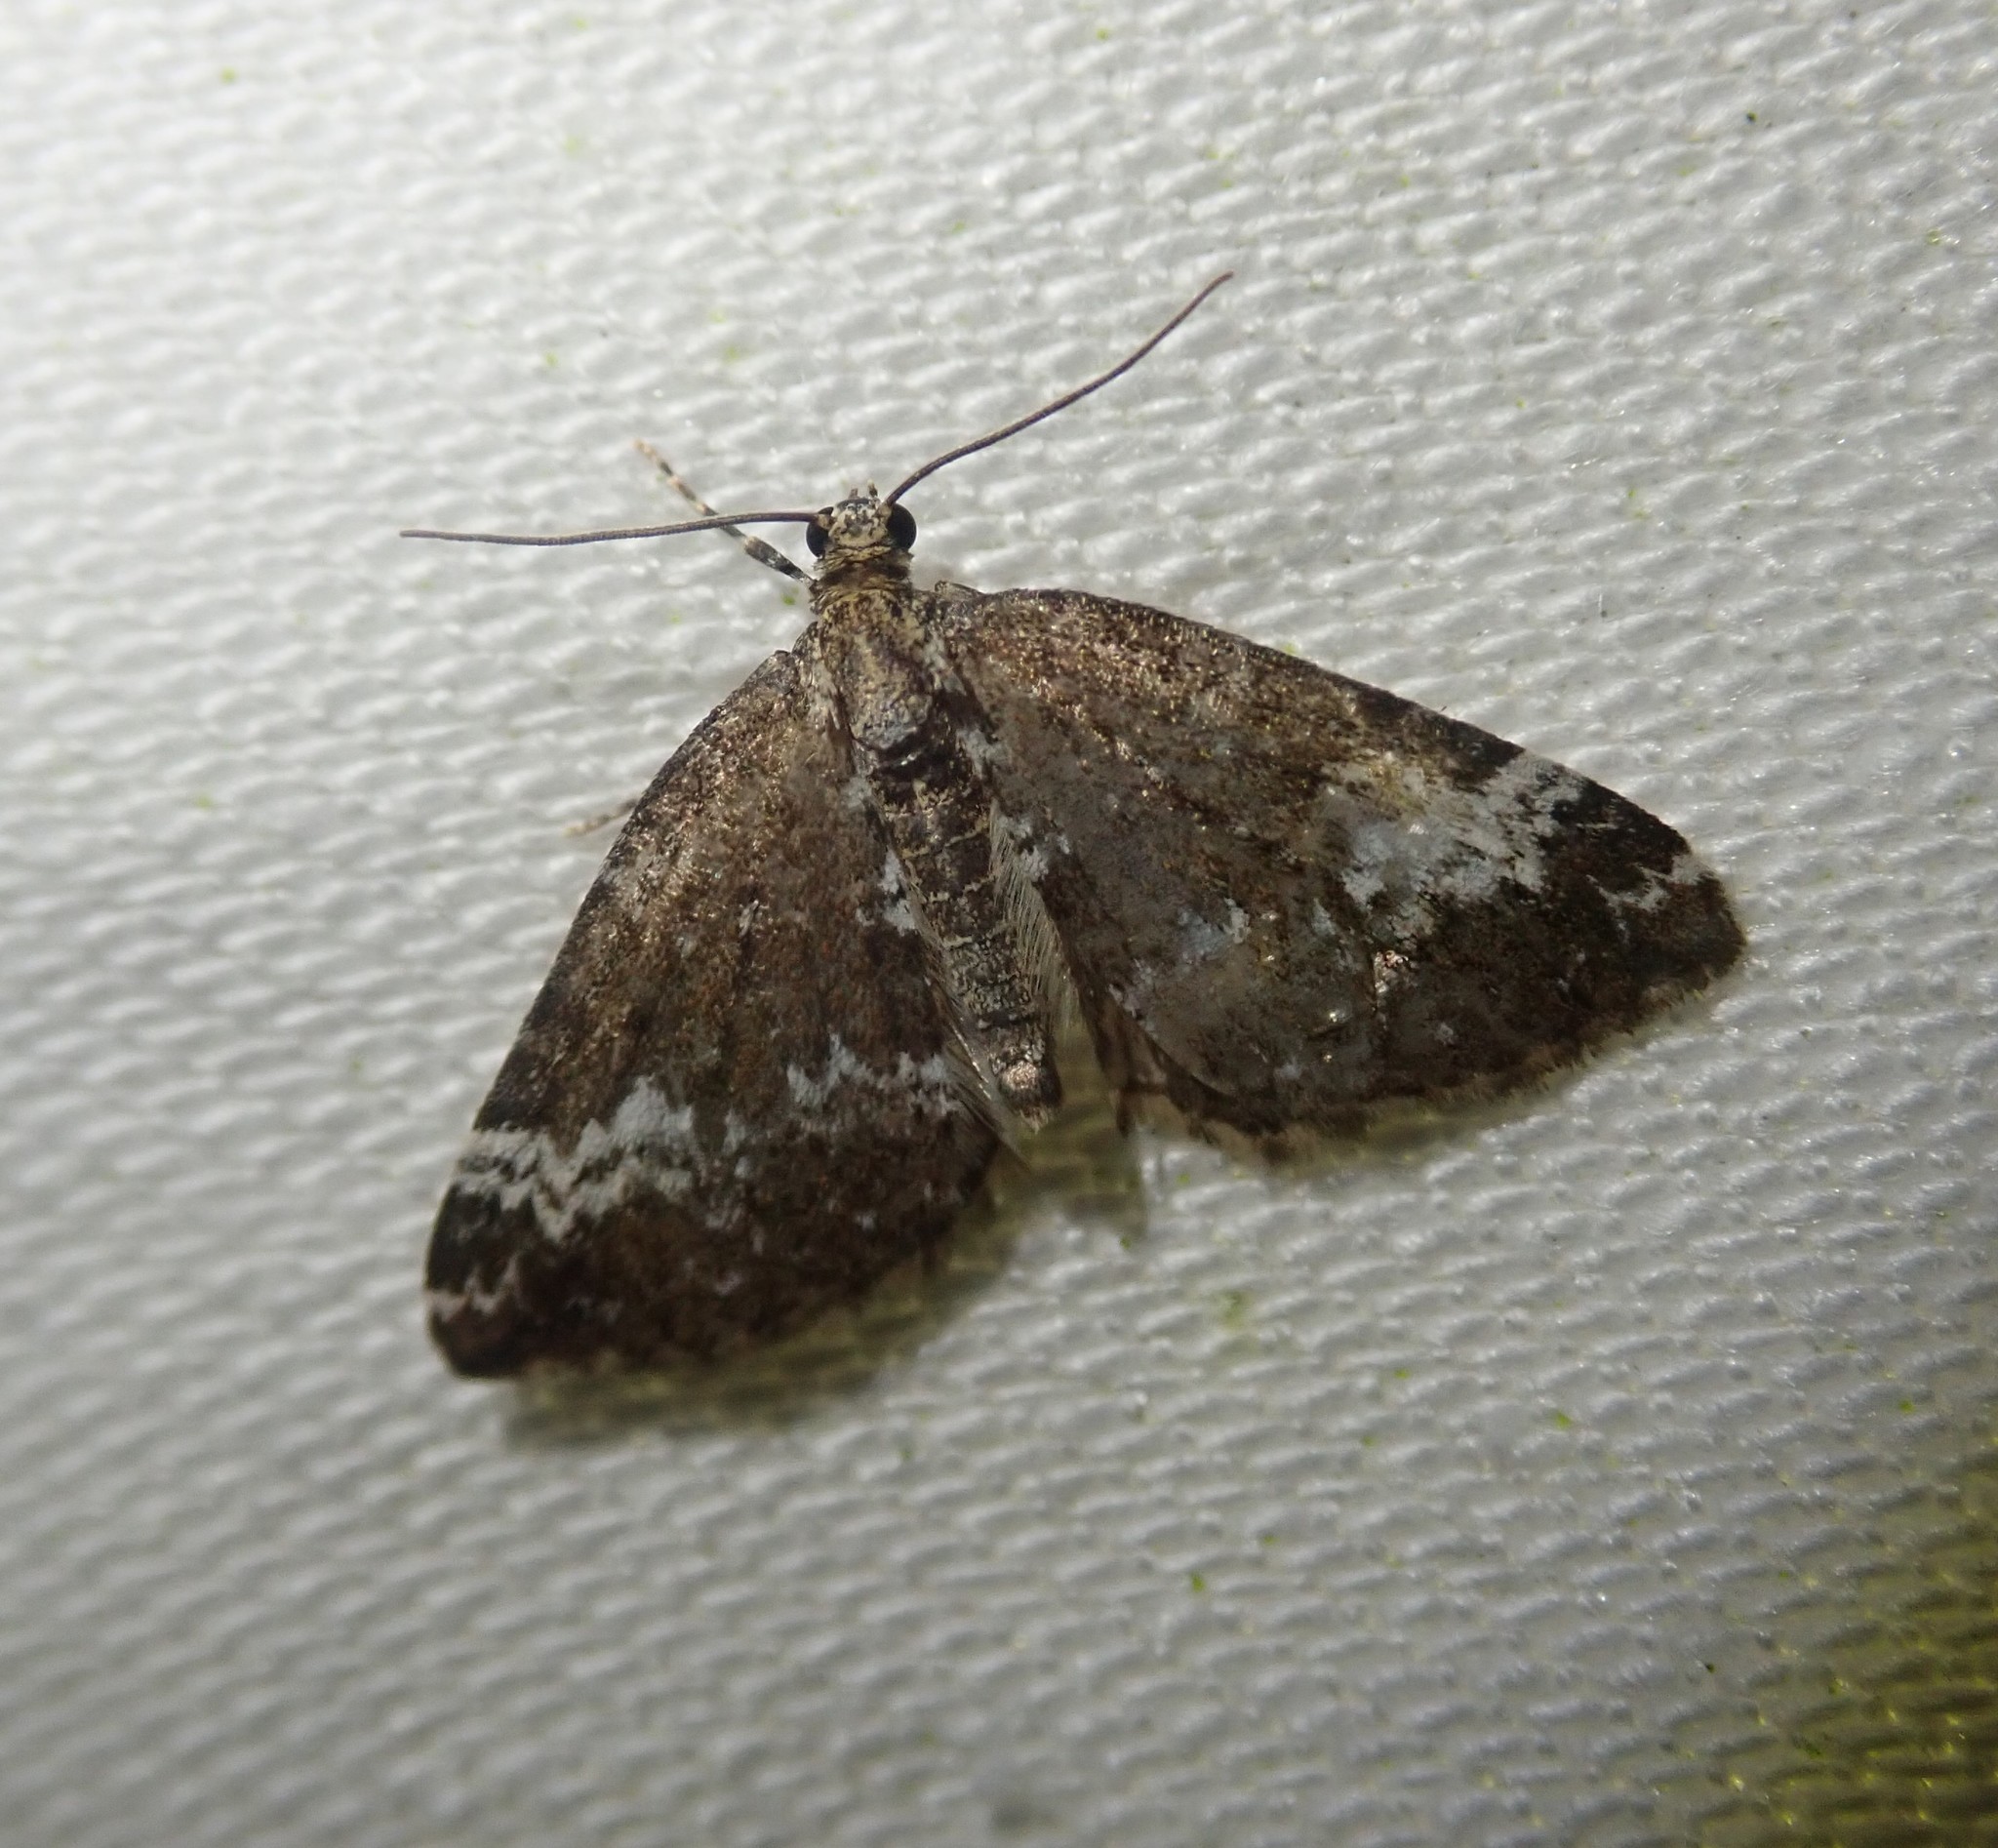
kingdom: Animalia
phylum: Arthropoda
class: Insecta
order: Lepidoptera
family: Geometridae
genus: Perizoma
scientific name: Perizoma alchemillata
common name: Small rivulet
